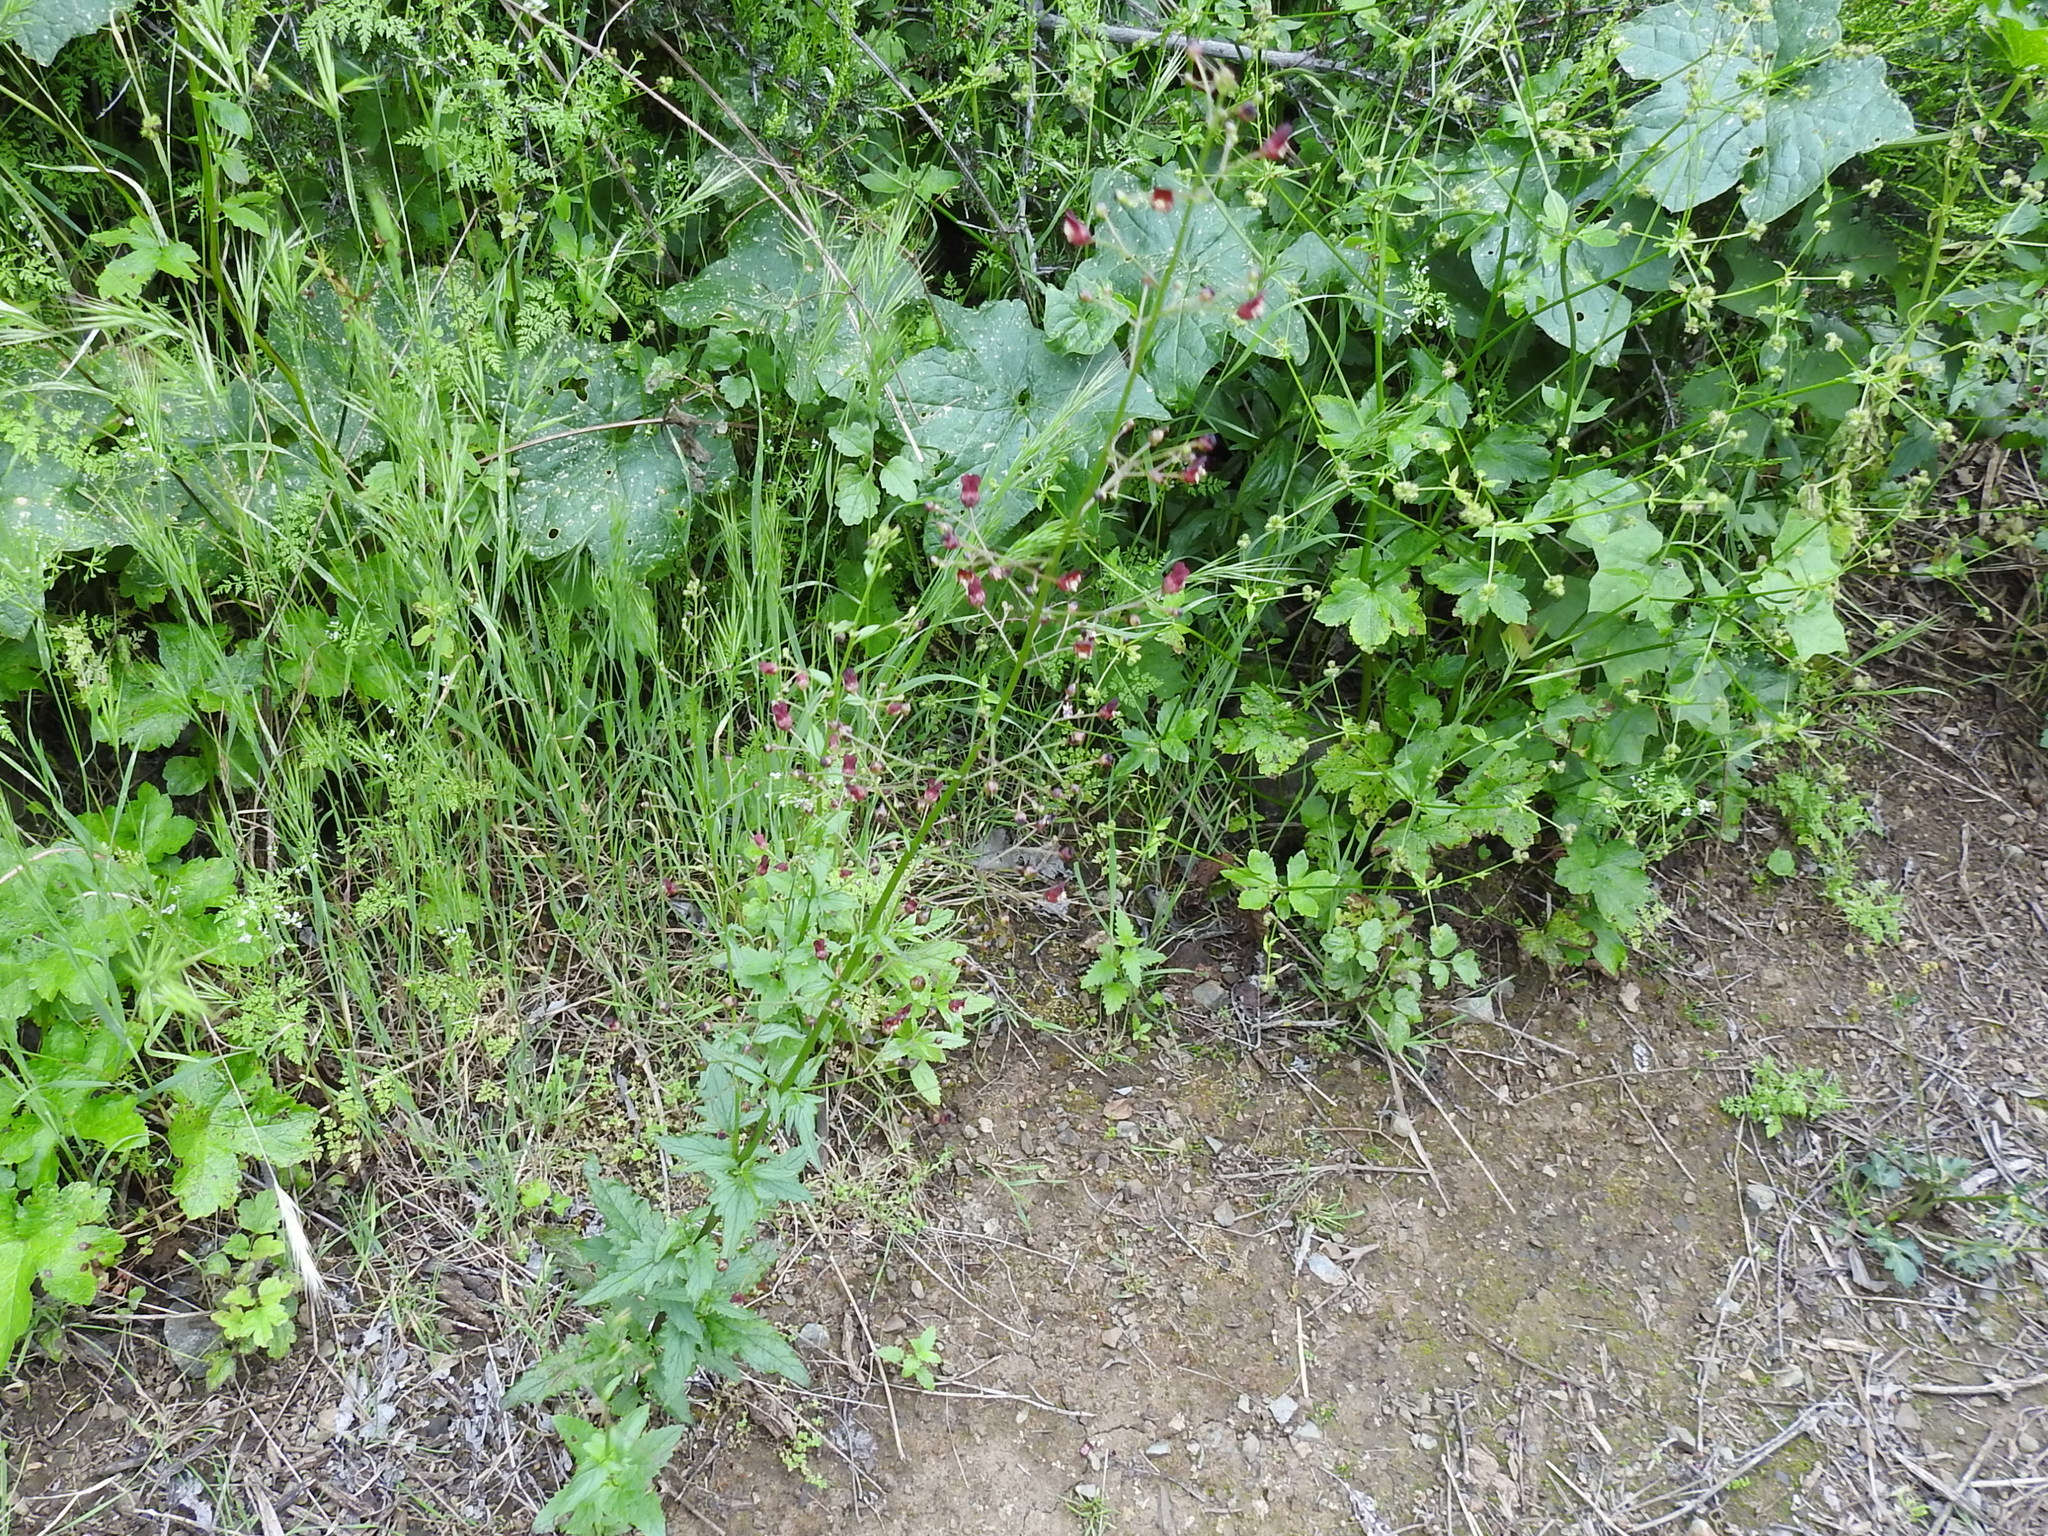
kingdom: Plantae
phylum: Tracheophyta
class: Magnoliopsida
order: Lamiales
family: Scrophulariaceae
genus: Scrophularia
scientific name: Scrophularia californica
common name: California figwort
